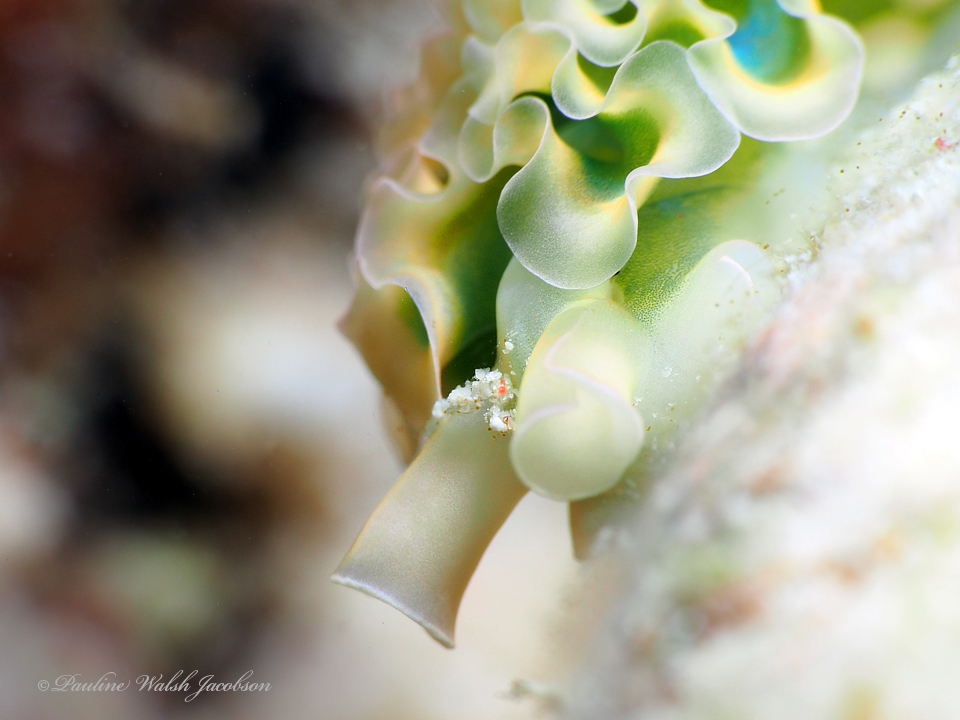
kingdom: Animalia
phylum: Mollusca
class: Gastropoda
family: Plakobranchidae
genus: Elysia
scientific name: Elysia crispata
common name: Lettuce slug
